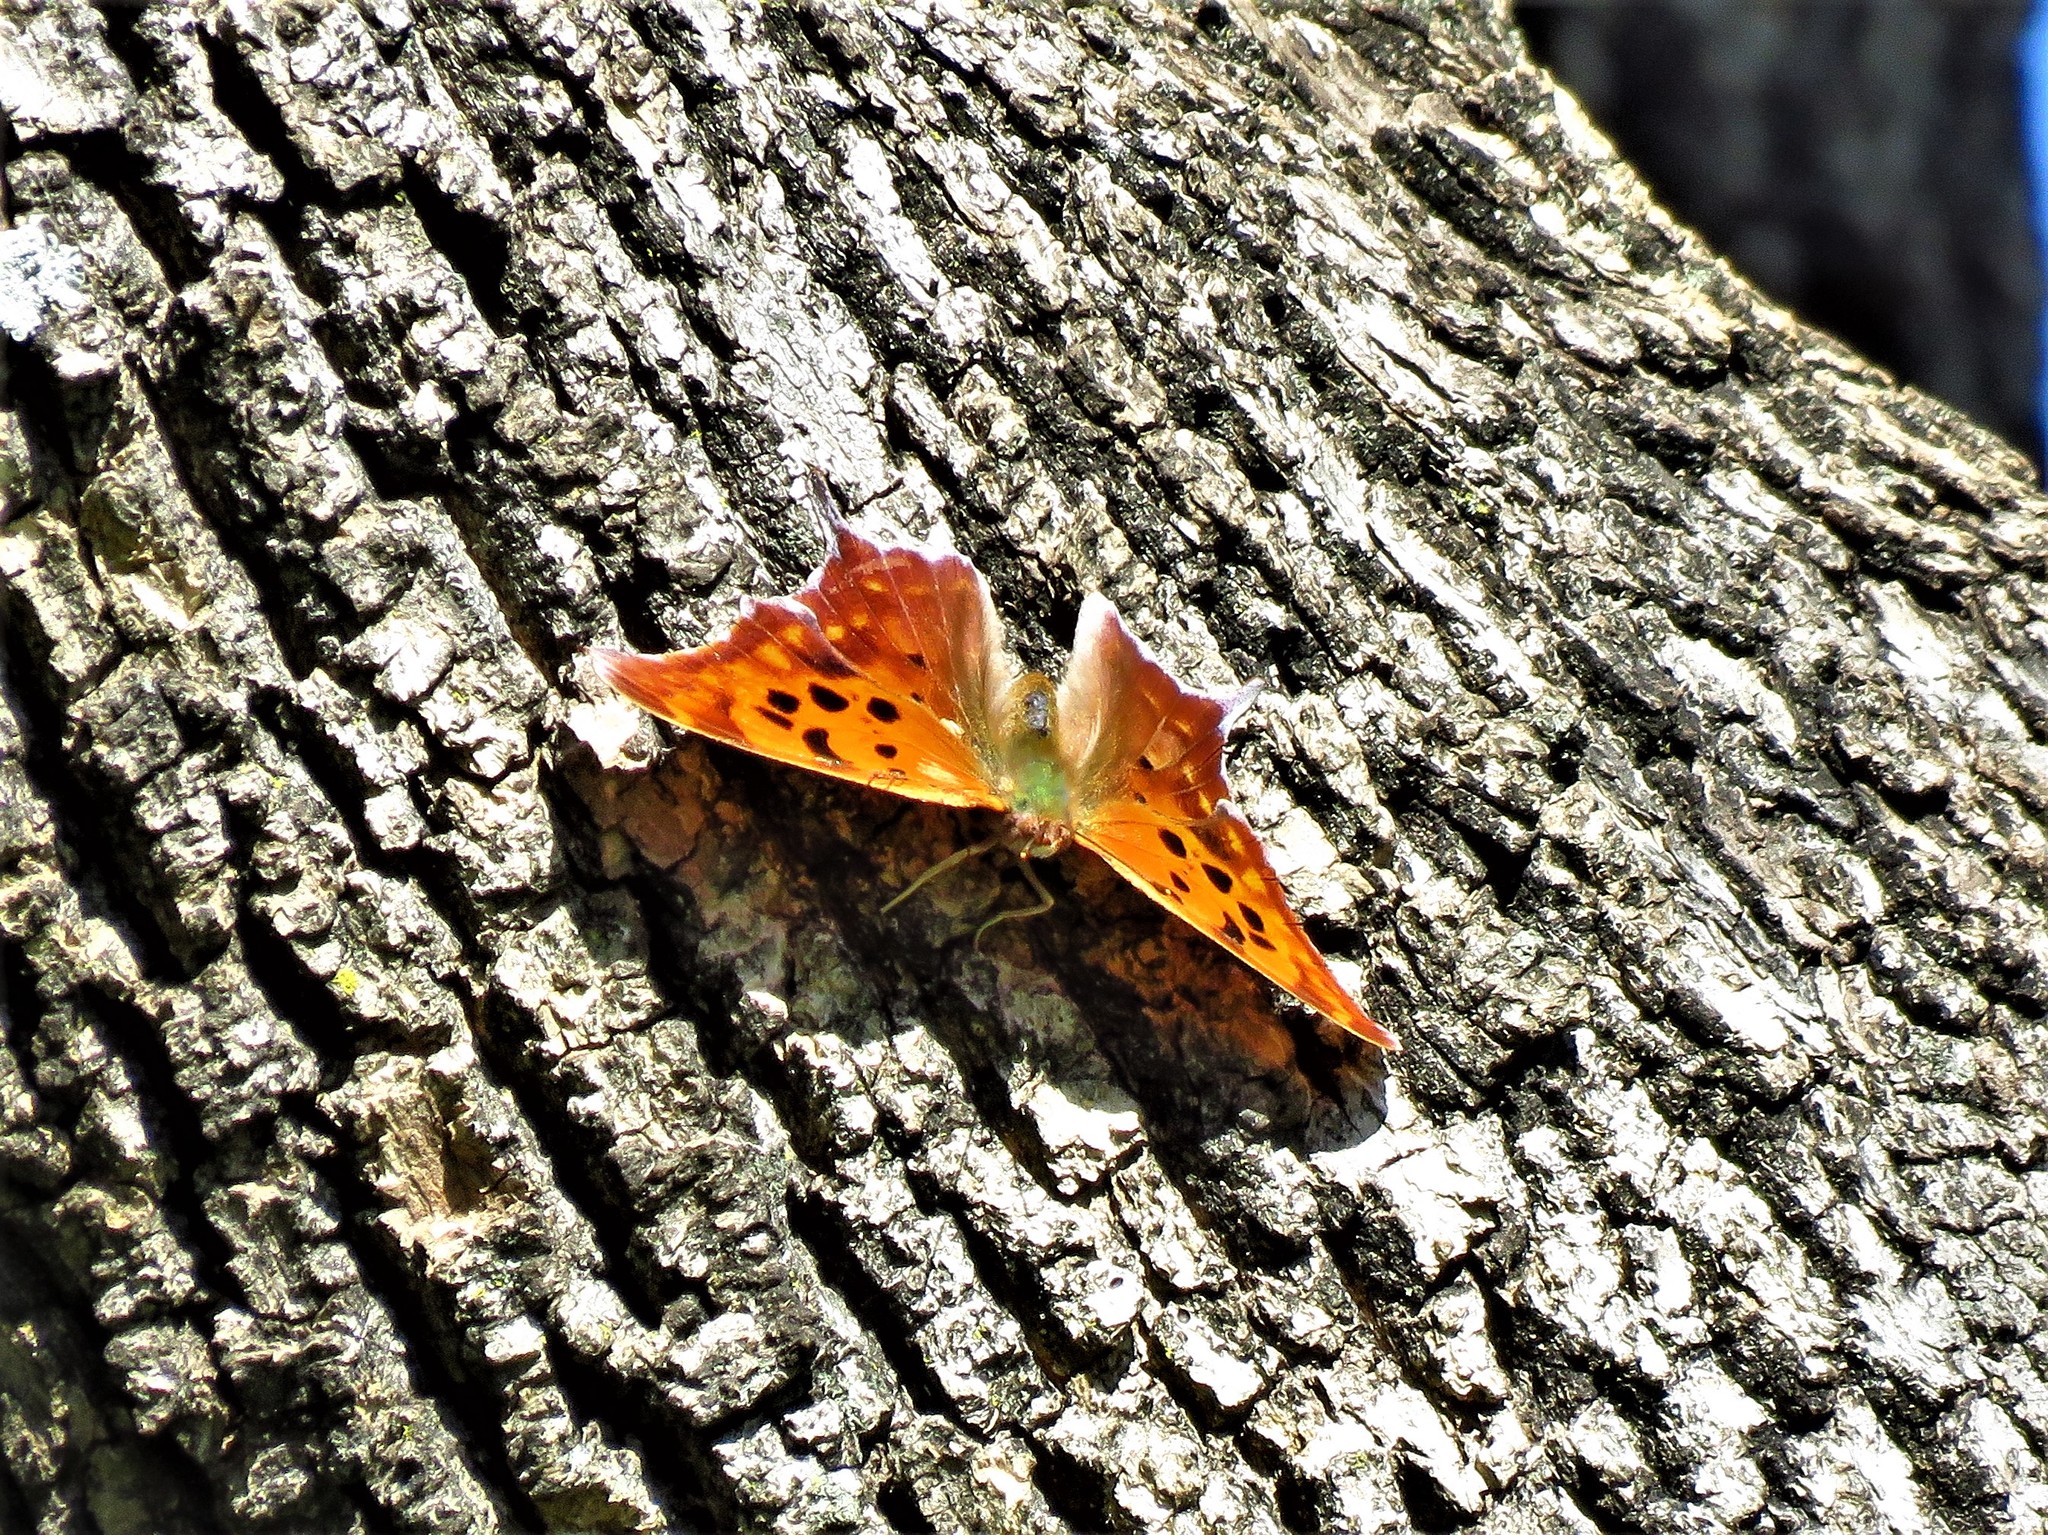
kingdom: Animalia
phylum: Arthropoda
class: Insecta
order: Lepidoptera
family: Nymphalidae
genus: Polygonia
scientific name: Polygonia interrogationis
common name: Question mark
